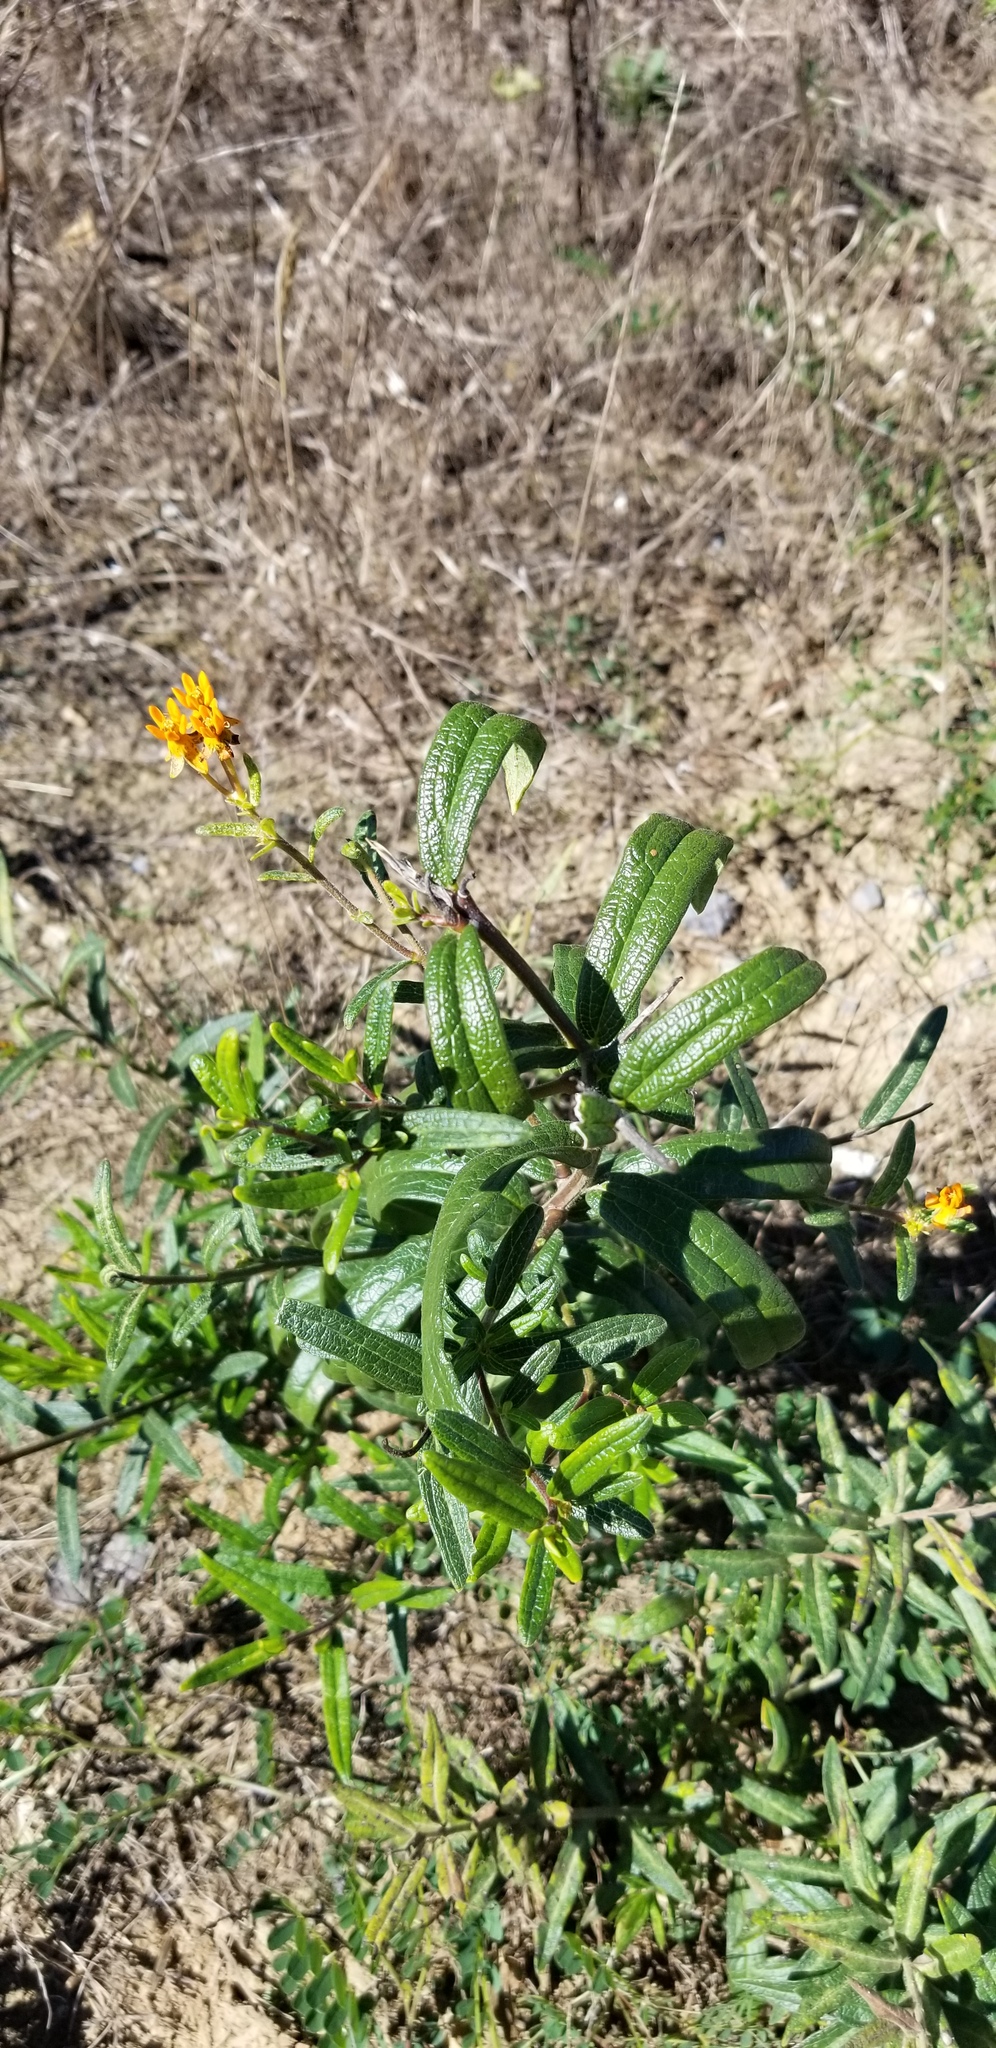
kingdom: Plantae
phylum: Tracheophyta
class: Magnoliopsida
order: Gentianales
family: Apocynaceae
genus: Asclepias
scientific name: Asclepias tuberosa
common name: Butterfly milkweed
